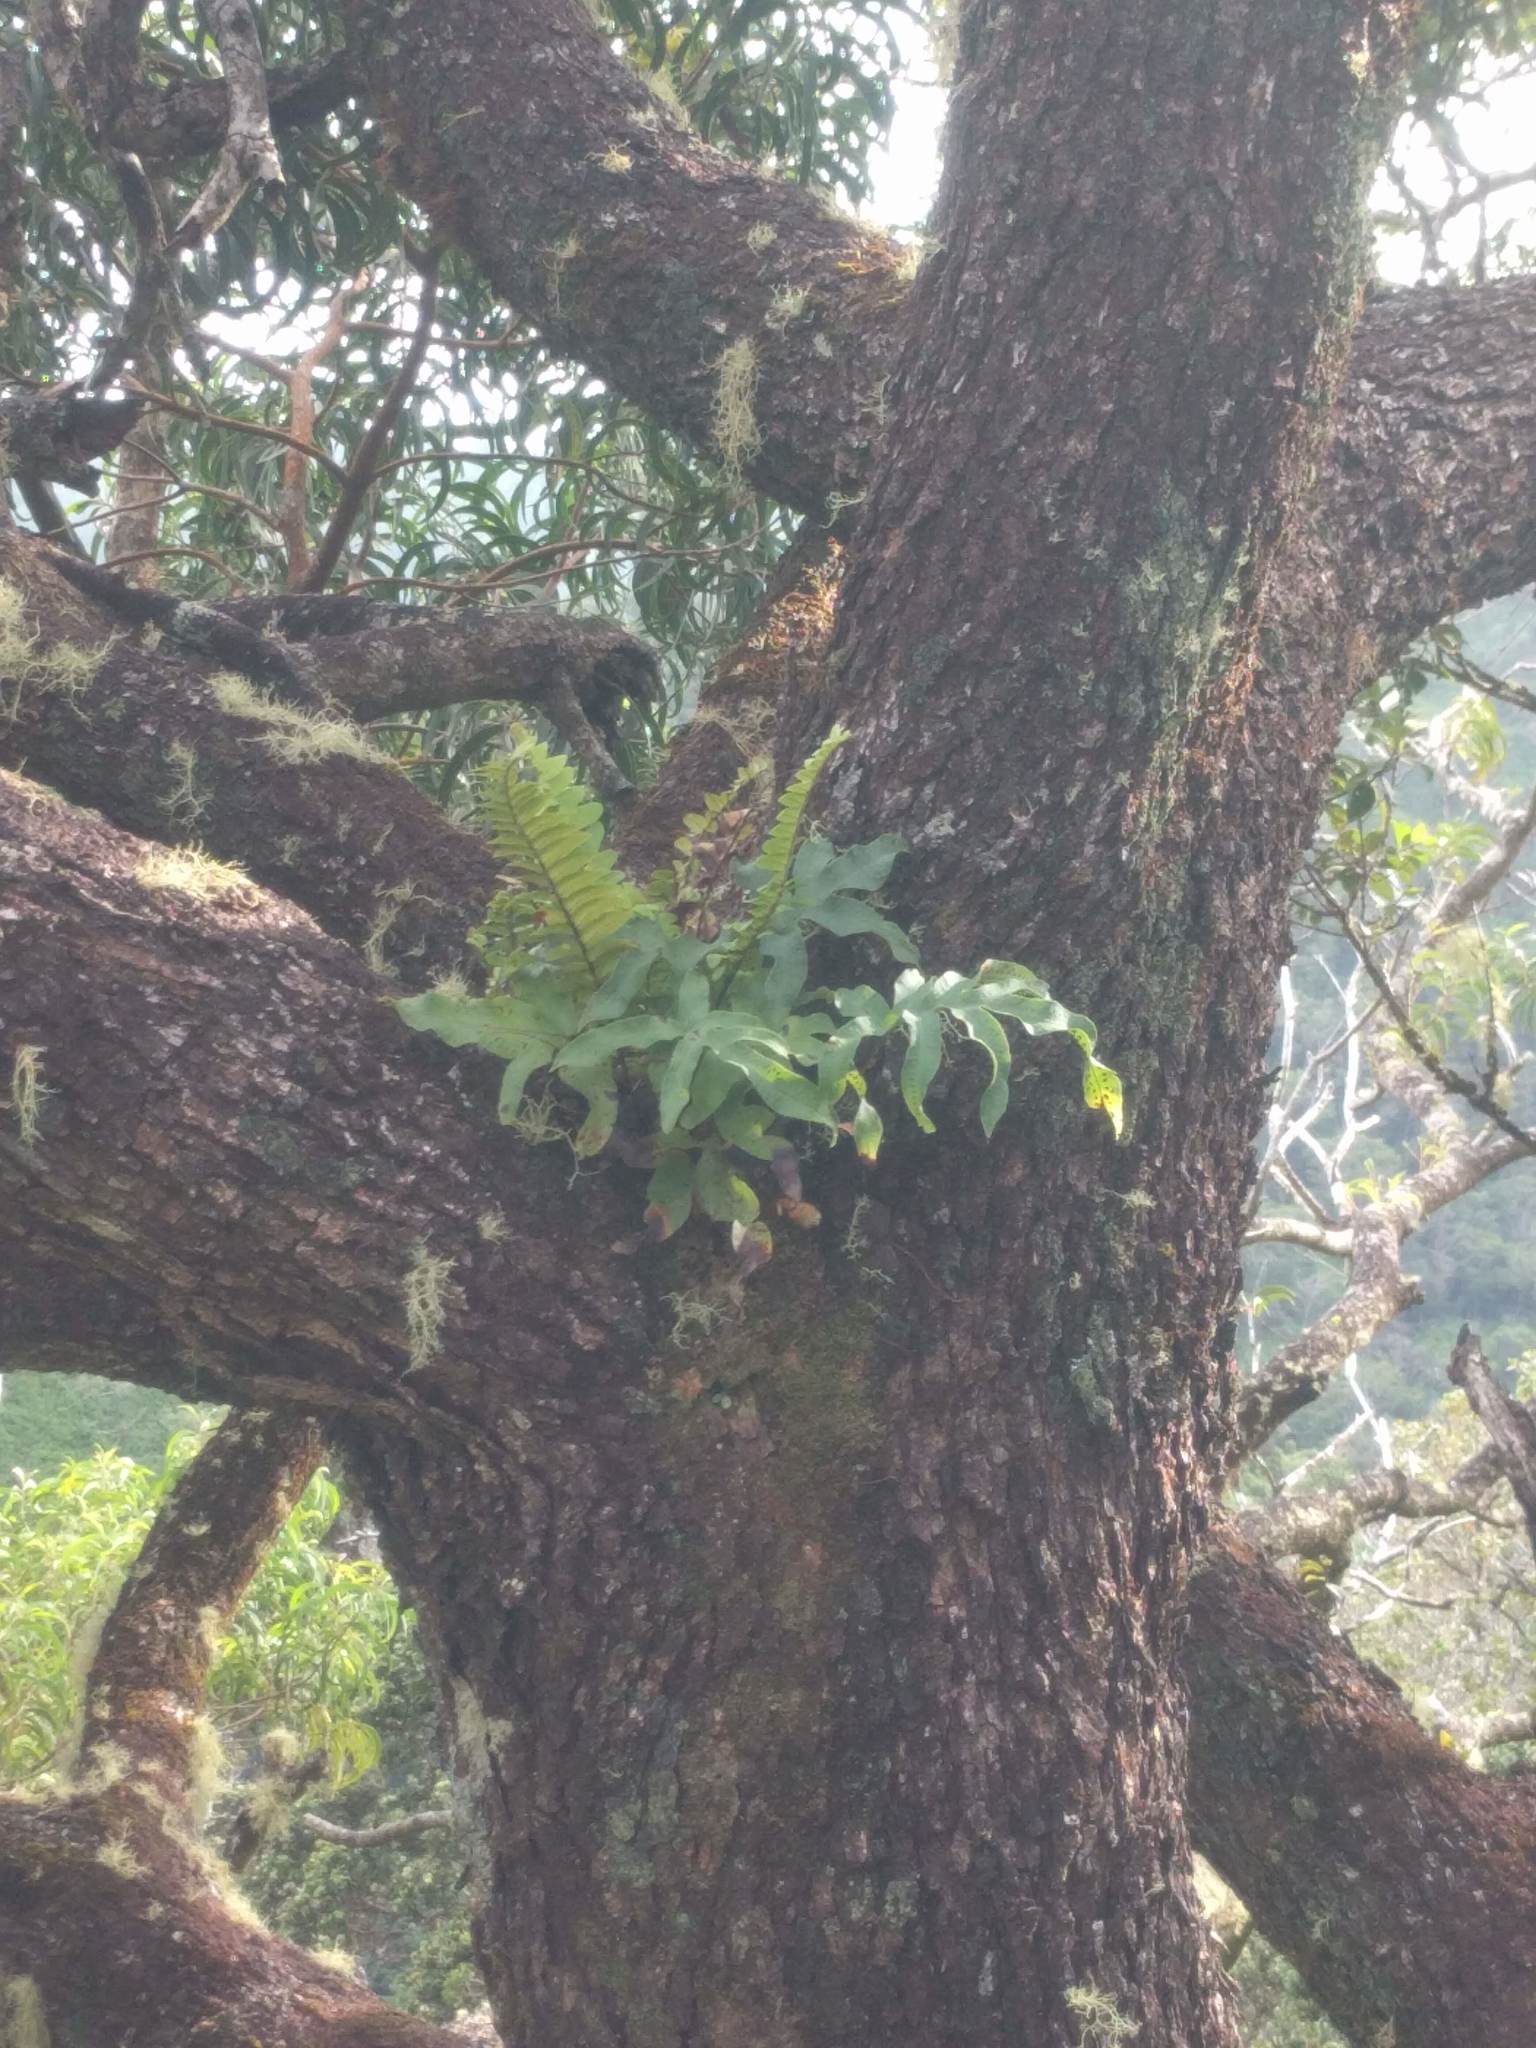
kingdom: Plantae
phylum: Tracheophyta
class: Polypodiopsida
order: Polypodiales
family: Polypodiaceae
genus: Phlebodium
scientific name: Phlebodium aureum
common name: Gold-foot fern
